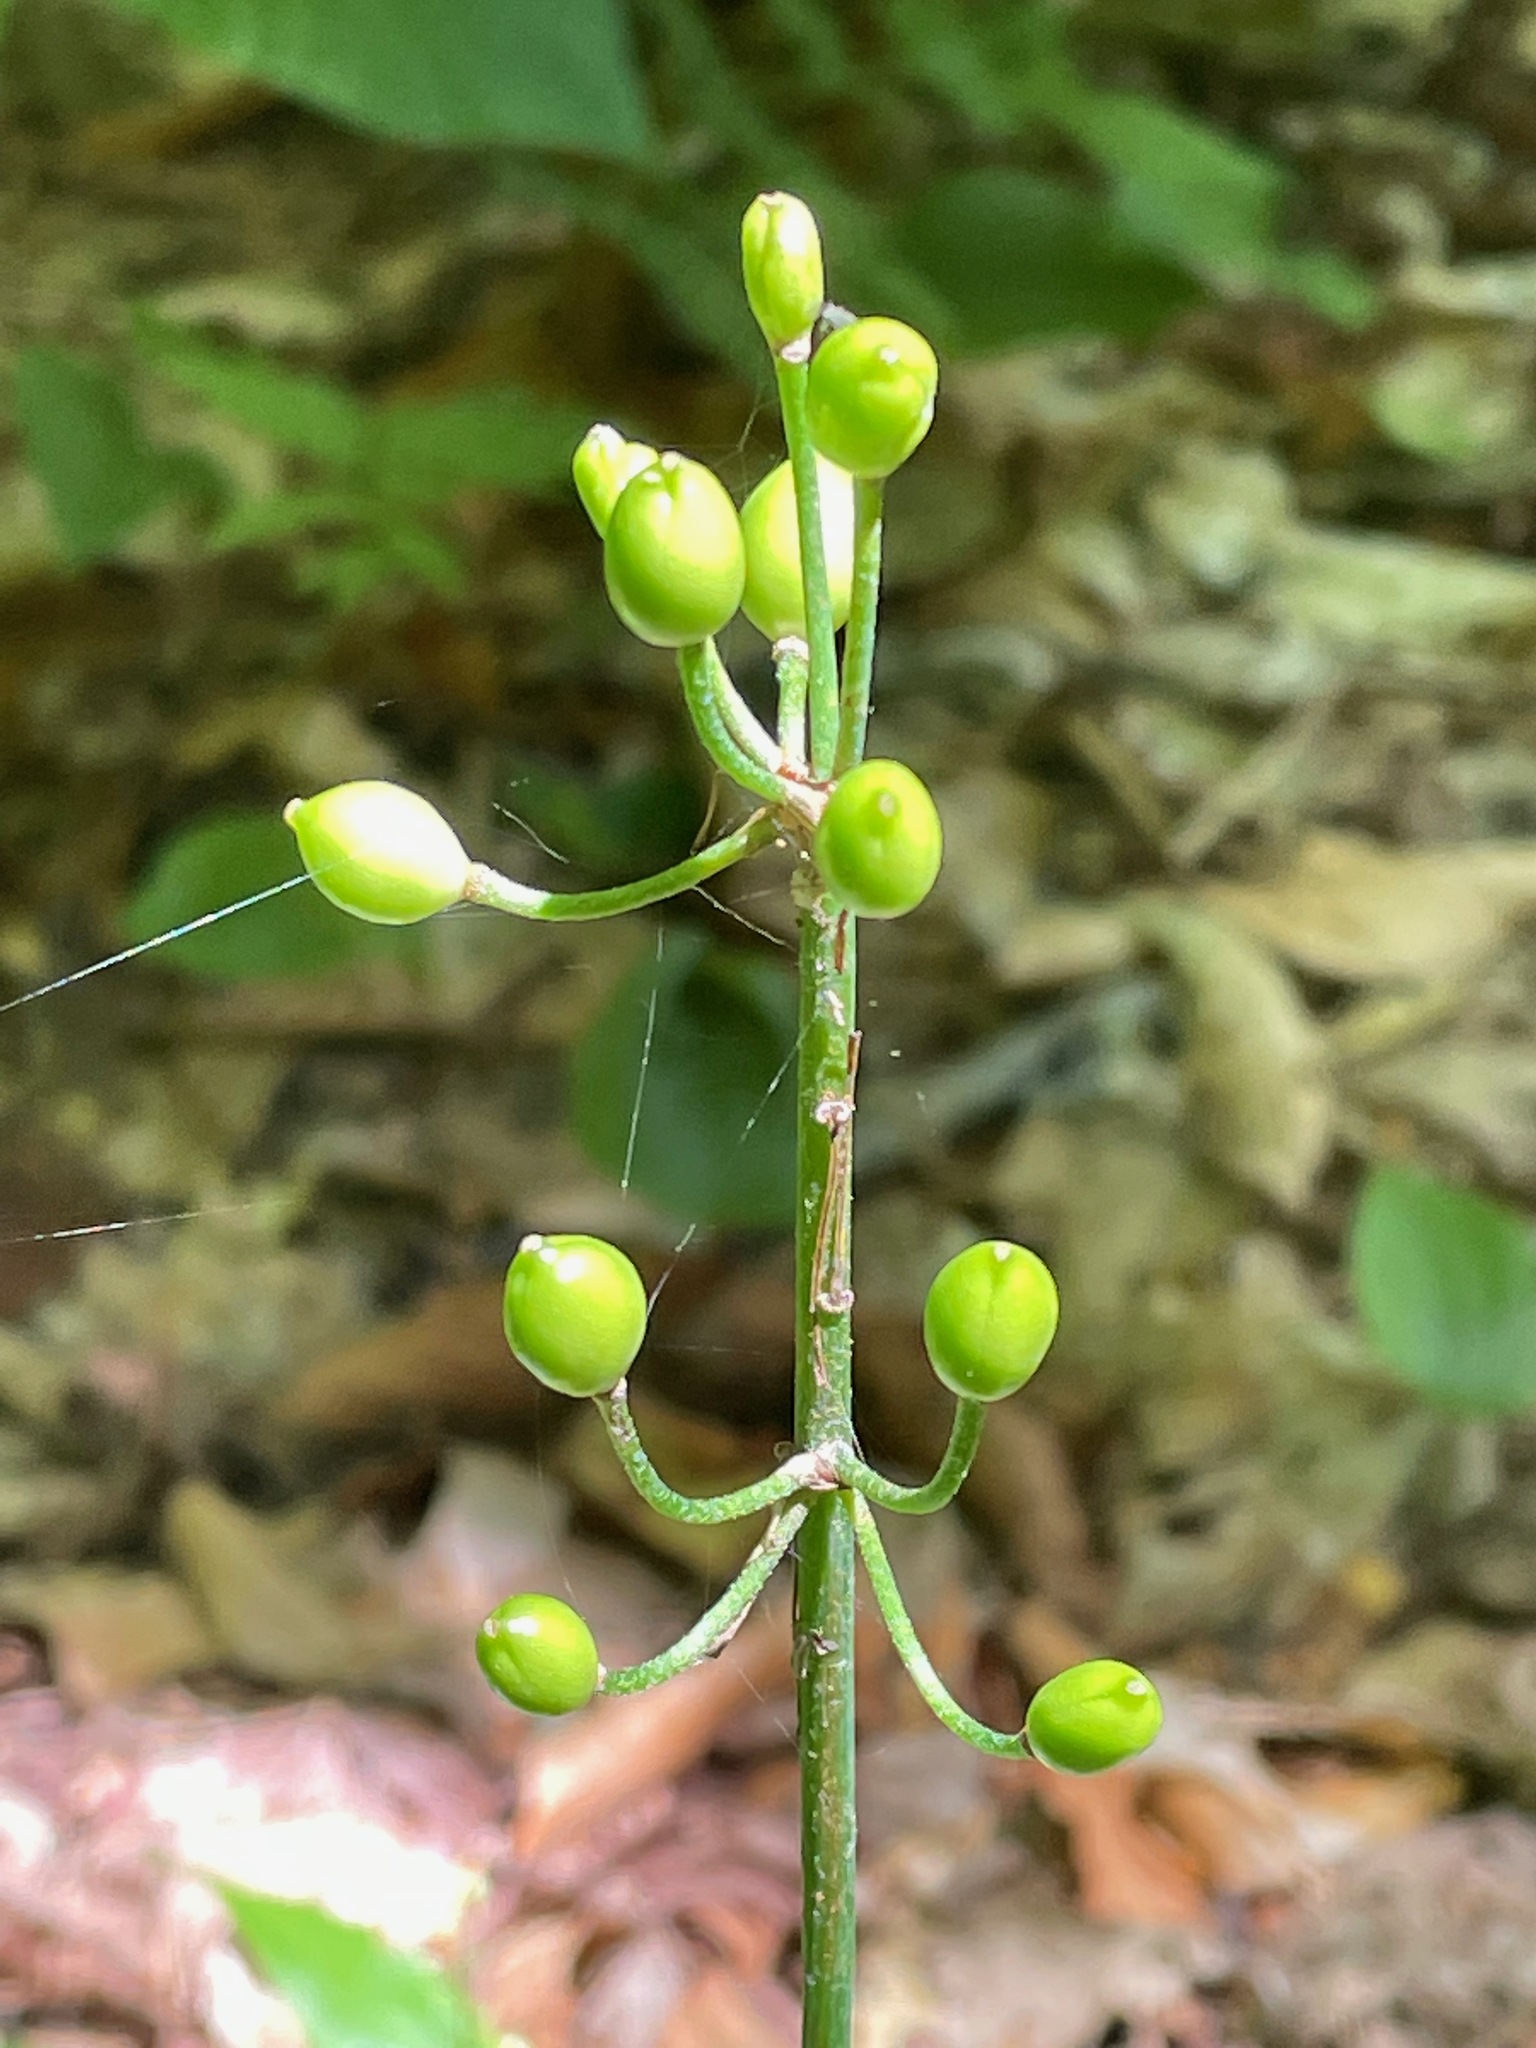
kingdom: Plantae
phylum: Tracheophyta
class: Liliopsida
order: Liliales
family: Liliaceae
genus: Clintonia
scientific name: Clintonia borealis
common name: Yellow clintonia
